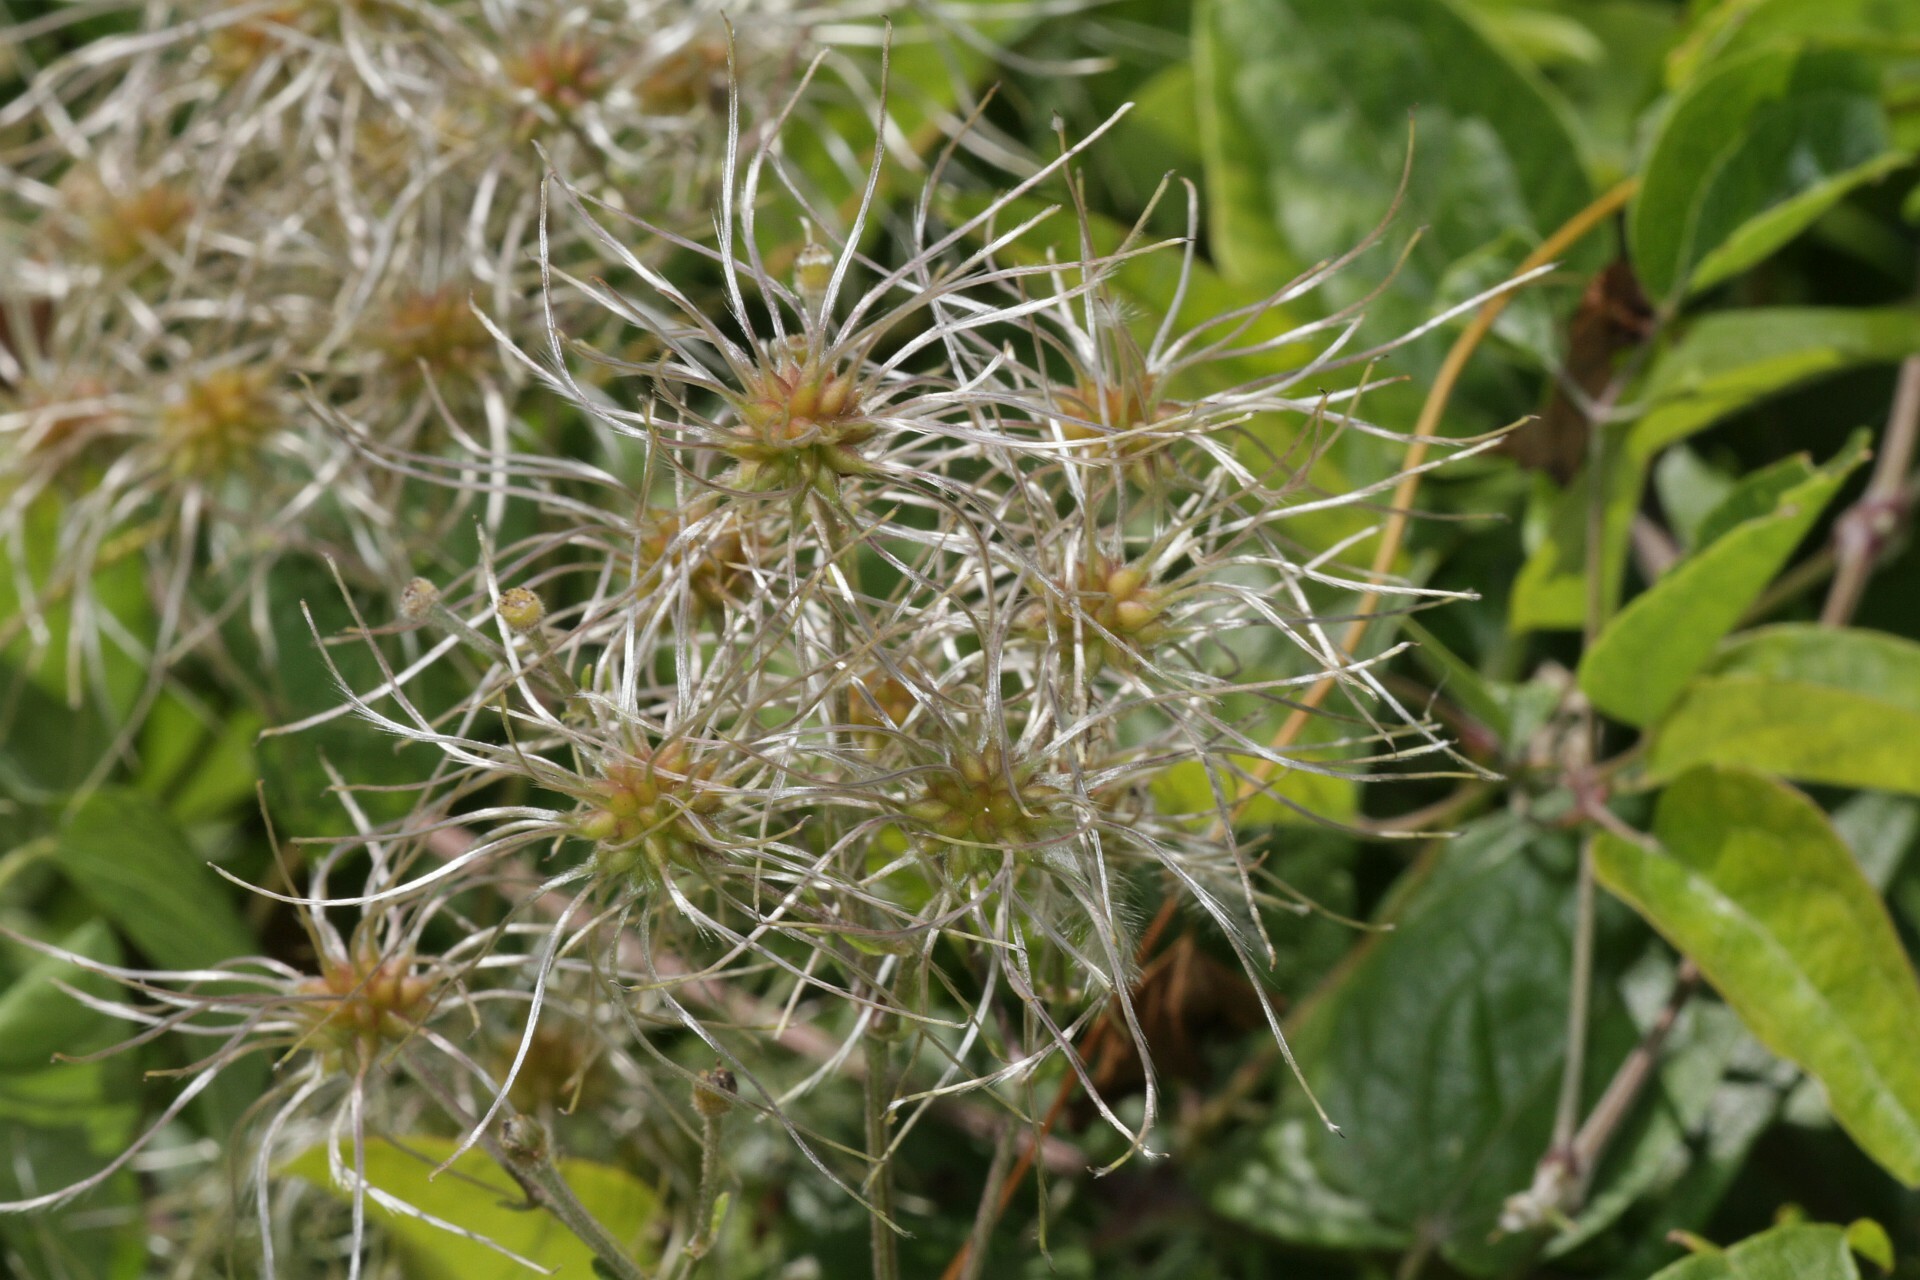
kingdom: Plantae
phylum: Tracheophyta
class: Magnoliopsida
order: Ranunculales
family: Ranunculaceae
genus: Clematis
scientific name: Clematis vitalba
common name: Evergreen clematis
